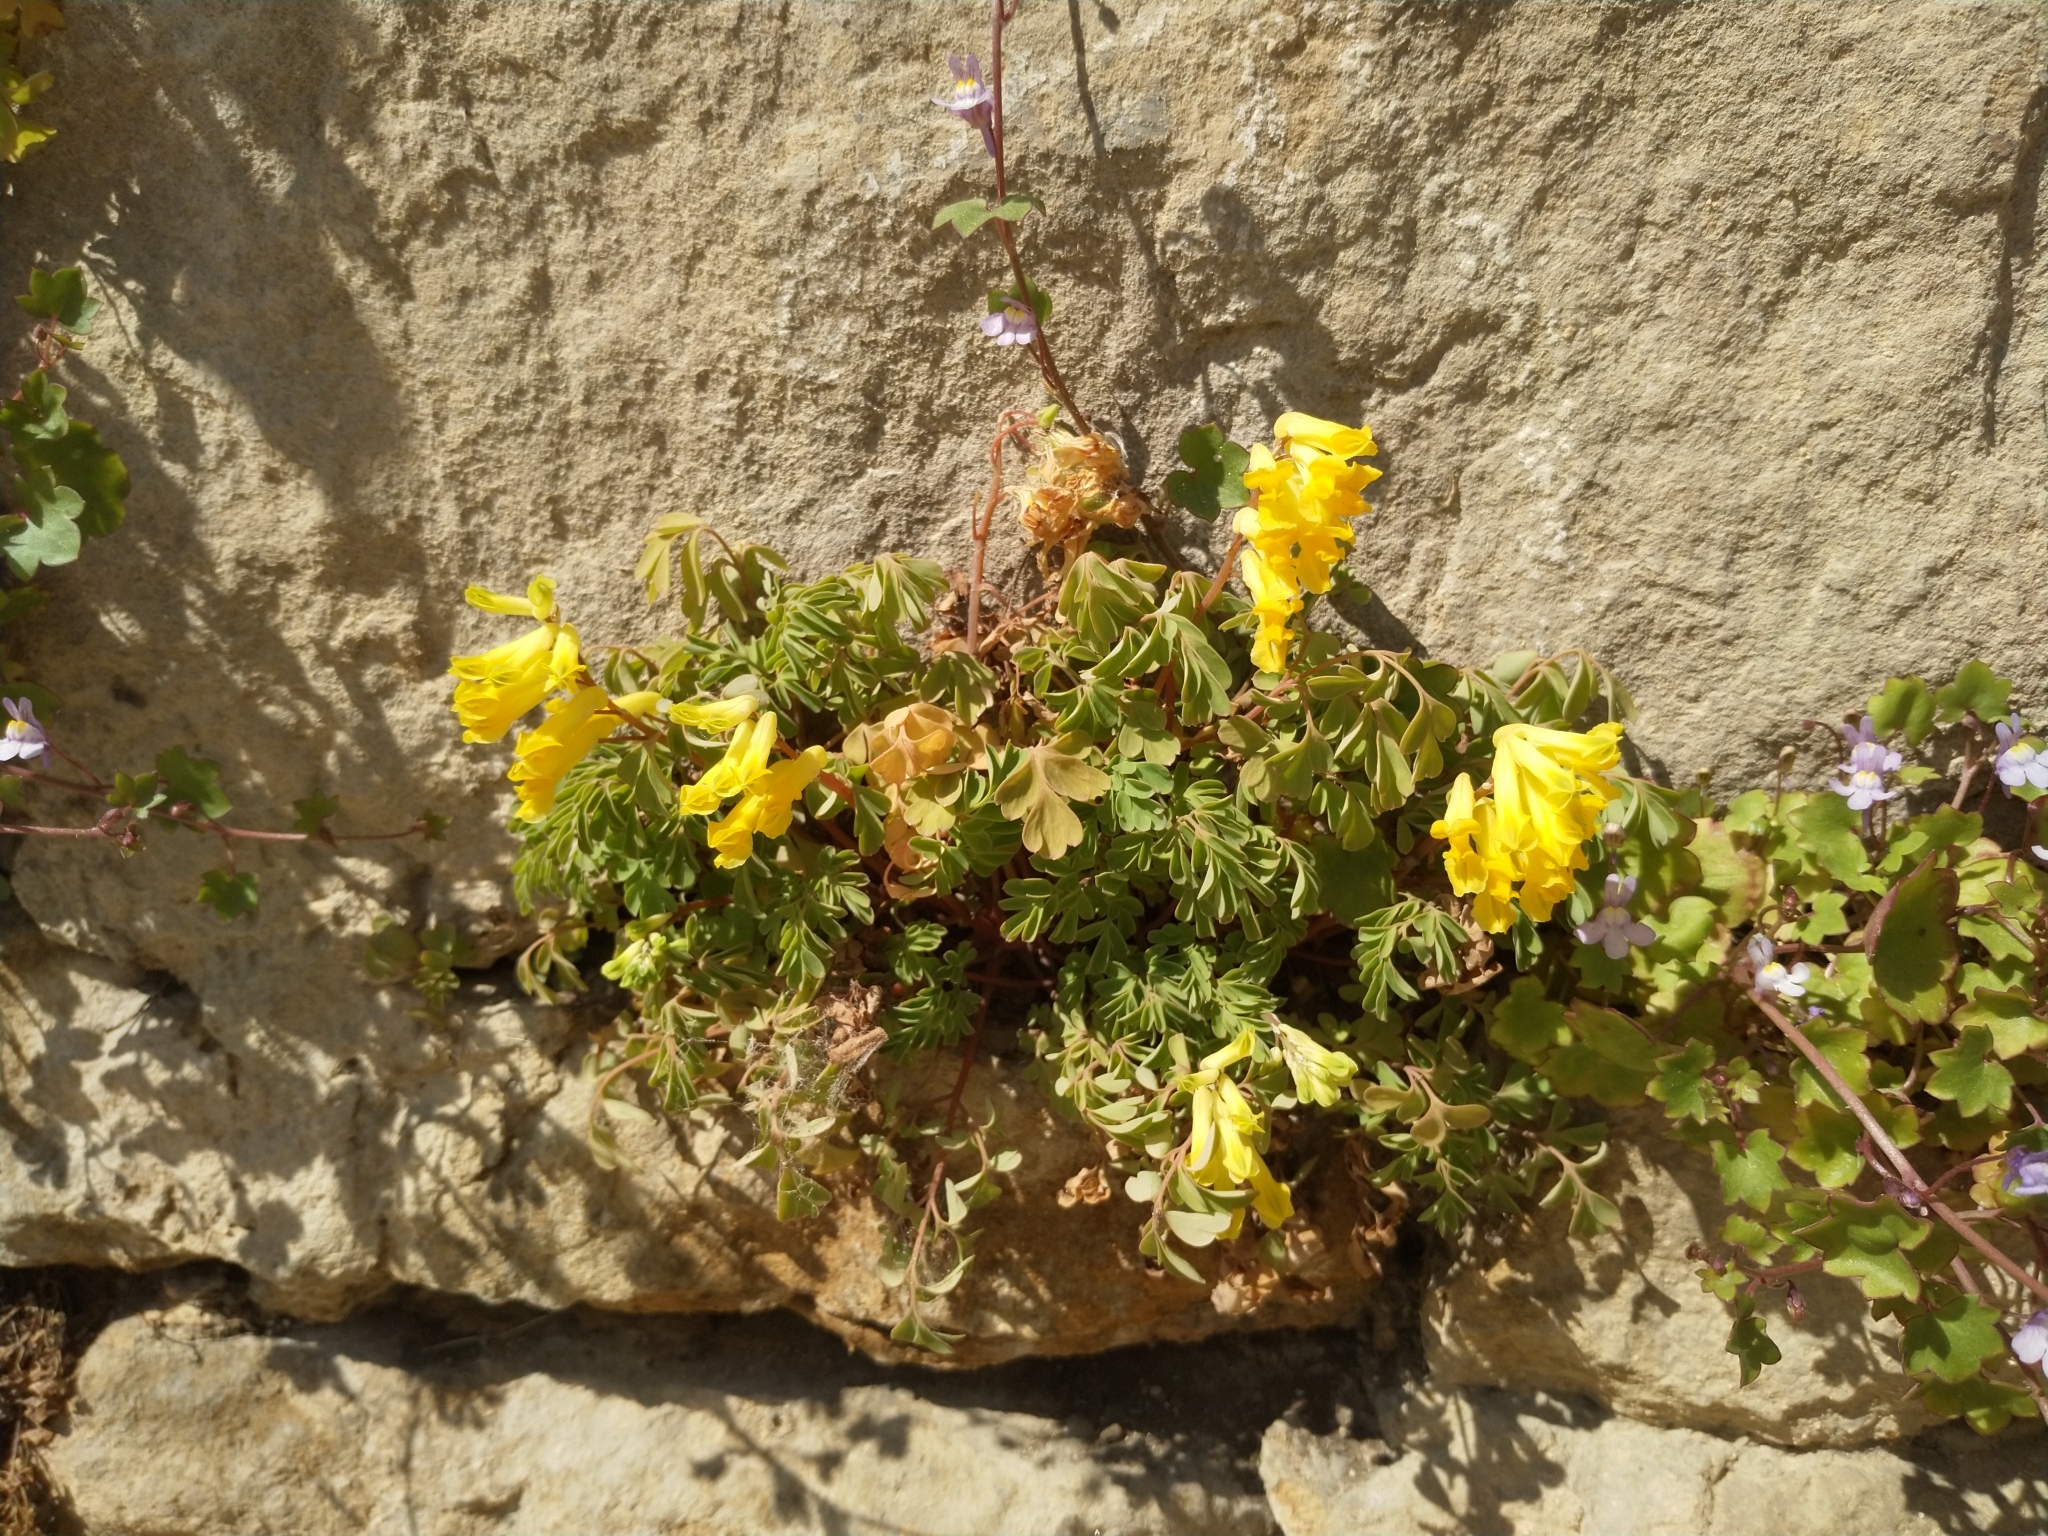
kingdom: Plantae
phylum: Tracheophyta
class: Magnoliopsida
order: Ranunculales
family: Papaveraceae
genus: Pseudofumaria
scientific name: Pseudofumaria lutea
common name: Yellow corydalis
